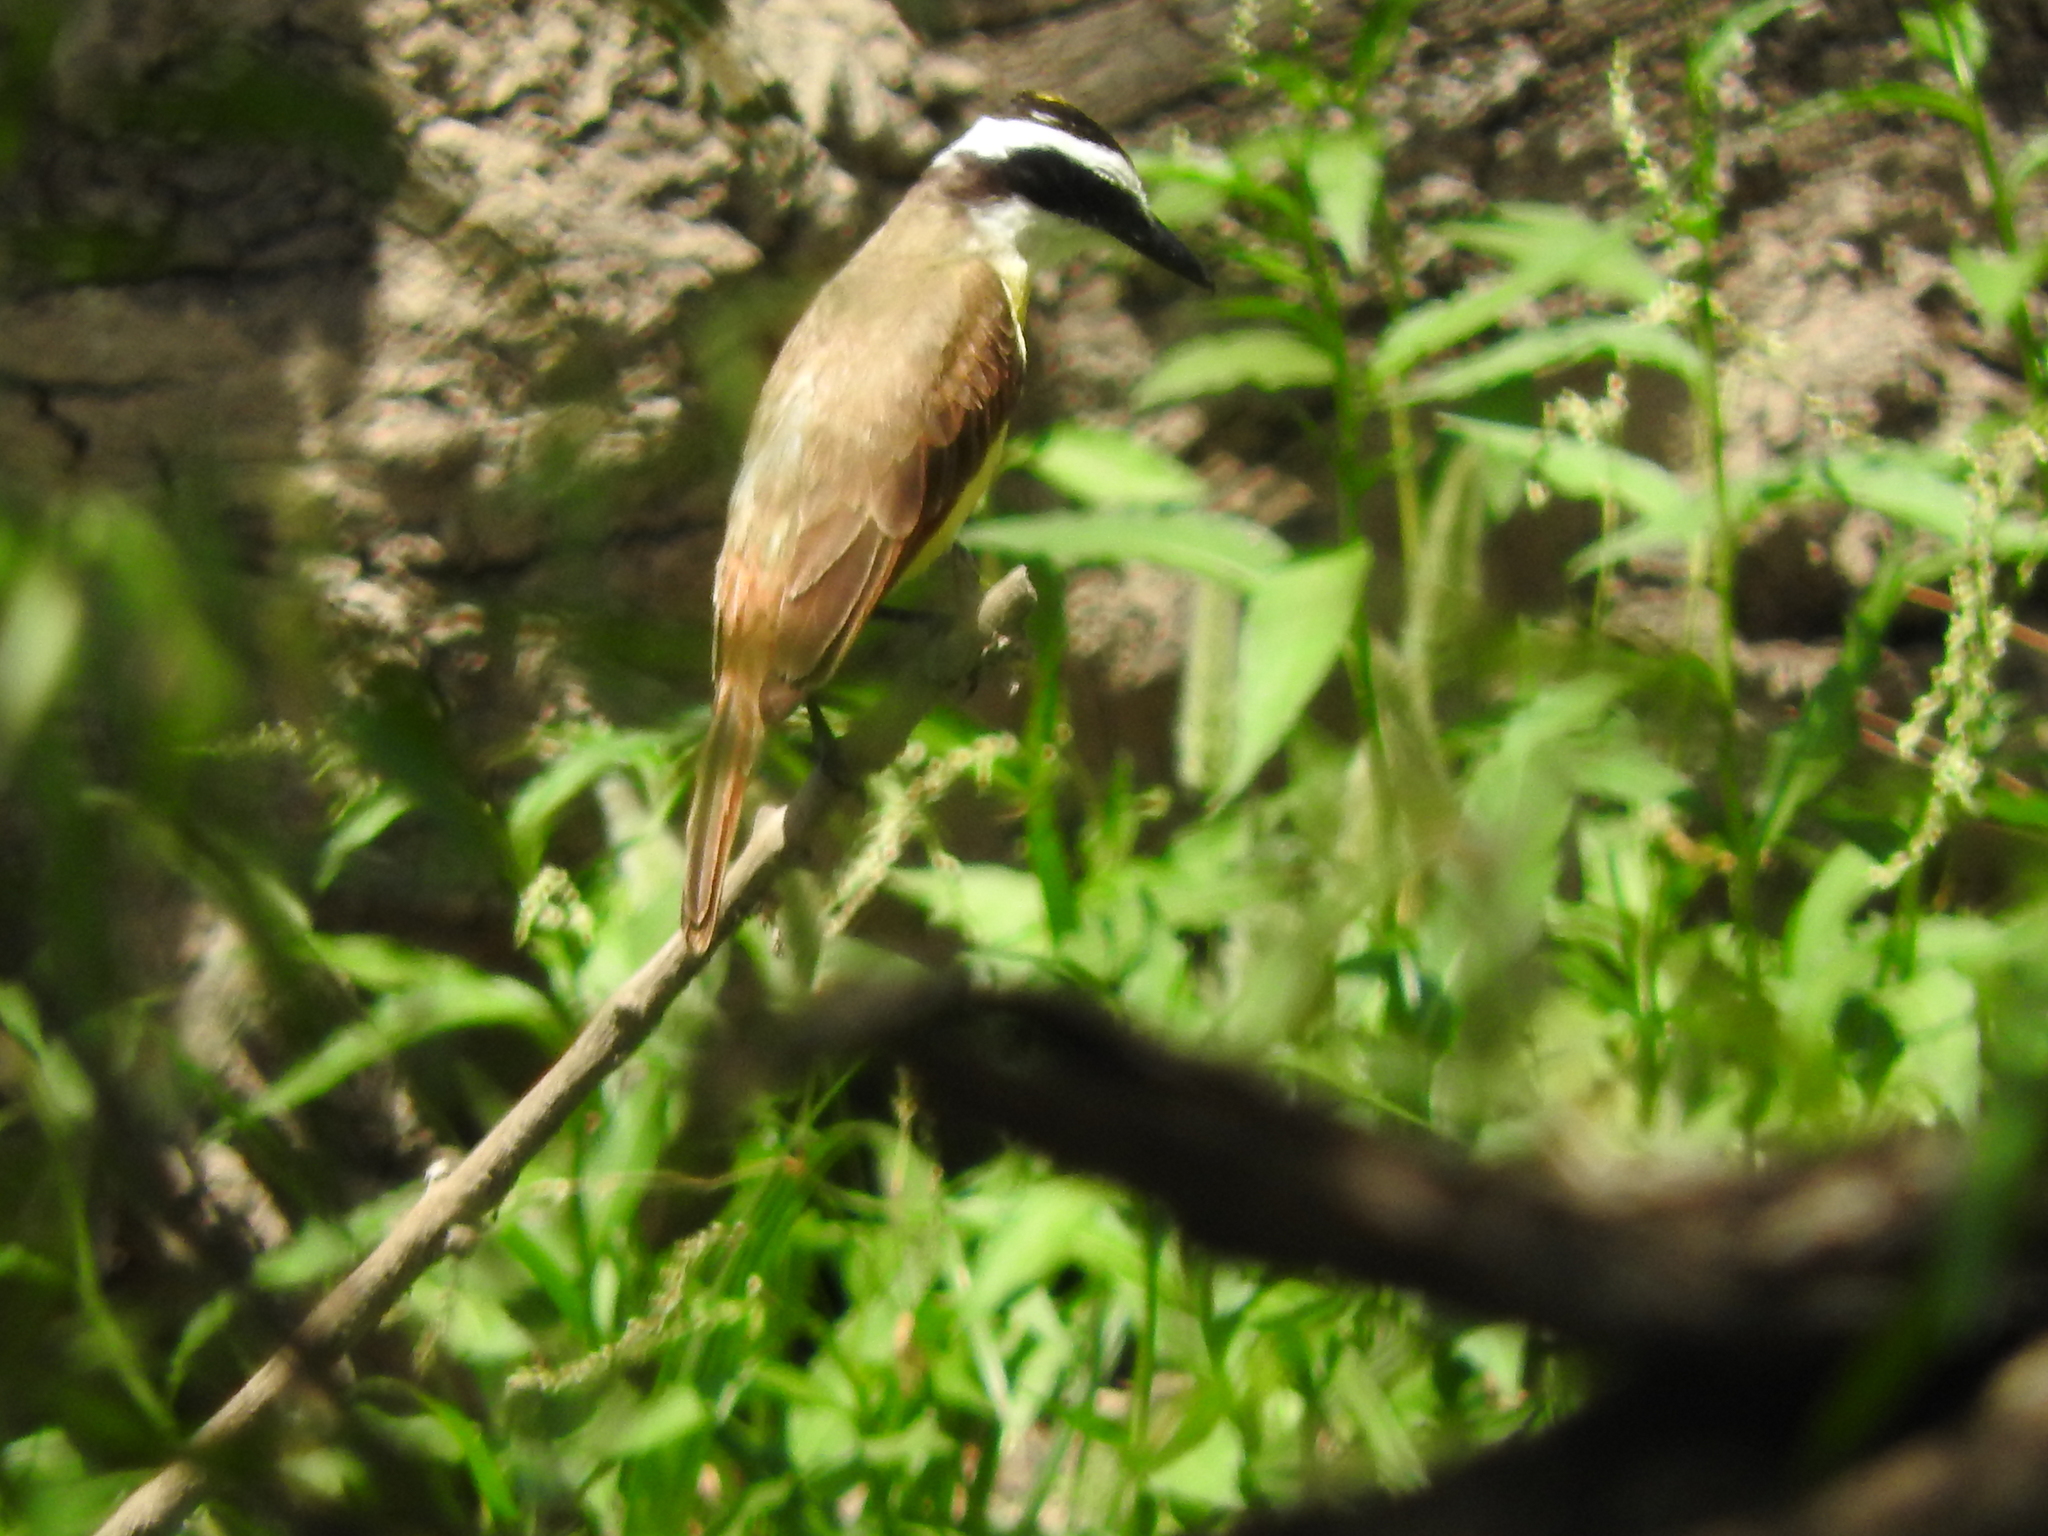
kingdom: Animalia
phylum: Chordata
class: Aves
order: Passeriformes
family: Tyrannidae
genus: Pitangus
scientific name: Pitangus sulphuratus
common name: Great kiskadee
